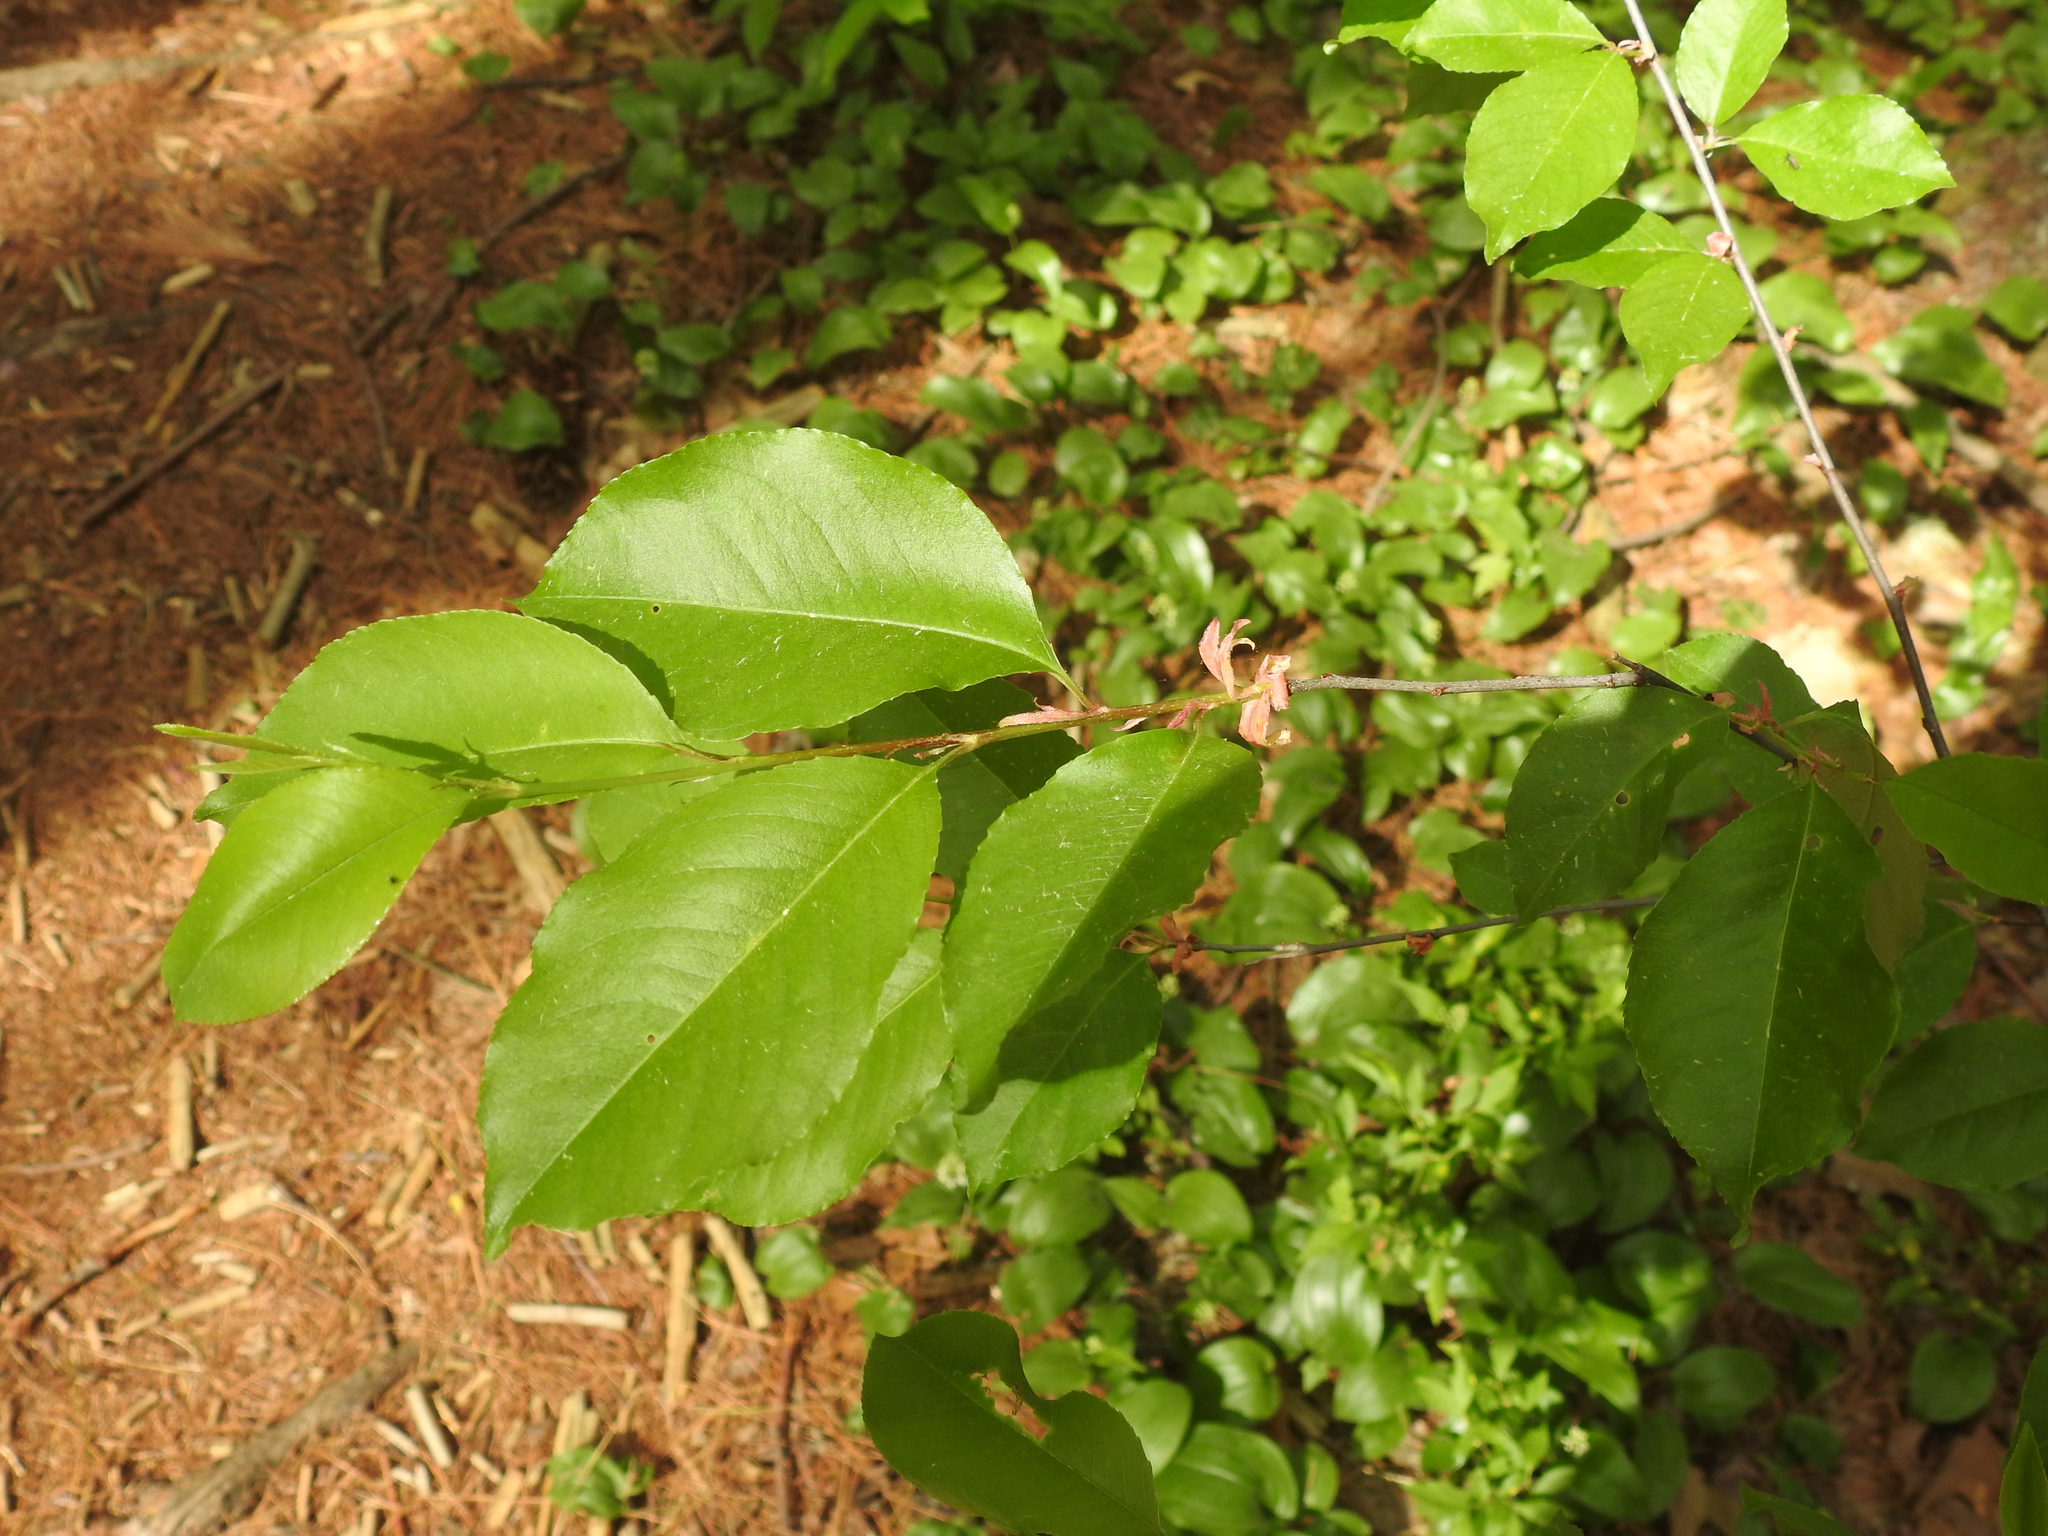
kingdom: Plantae
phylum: Tracheophyta
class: Magnoliopsida
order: Rosales
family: Rosaceae
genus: Prunus
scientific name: Prunus serotina
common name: Black cherry
